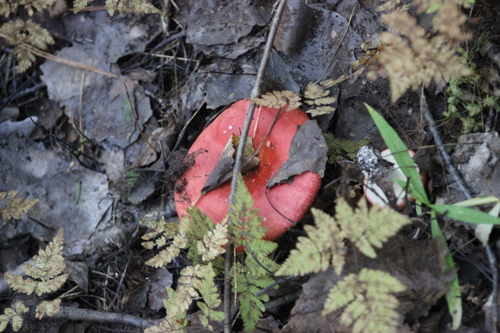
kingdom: Fungi
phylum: Basidiomycota
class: Agaricomycetes
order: Russulales
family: Russulaceae
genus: Russula
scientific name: Russula sanguinaria
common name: Bloody brittlegill
